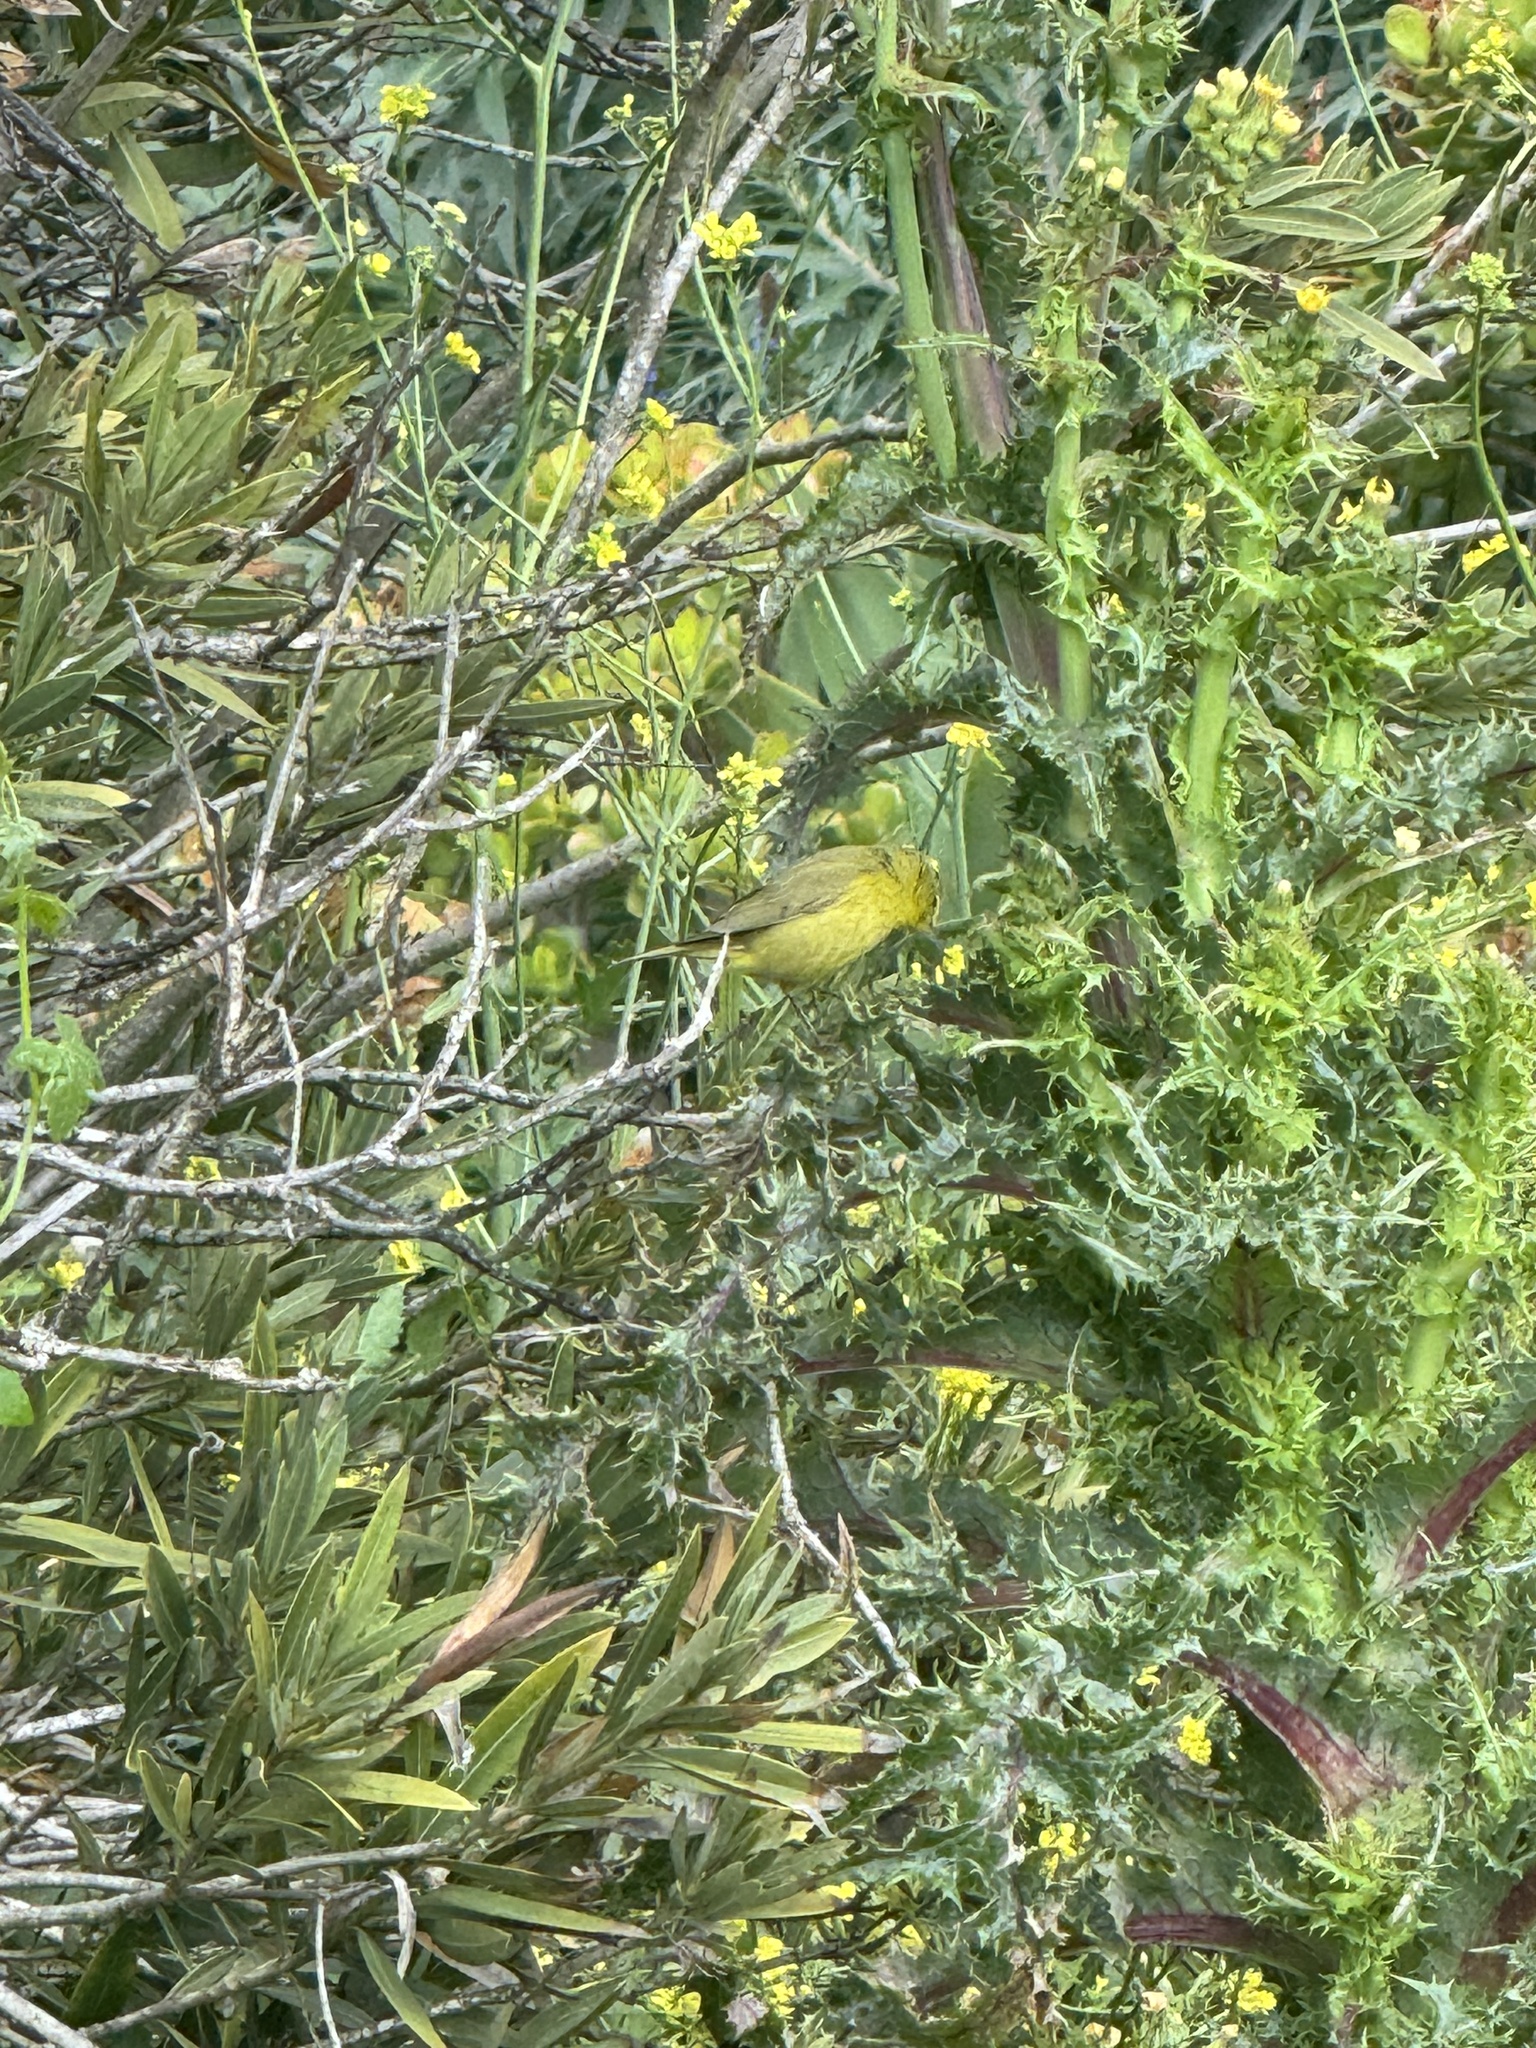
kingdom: Animalia
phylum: Chordata
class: Aves
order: Passeriformes
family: Parulidae
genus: Leiothlypis
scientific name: Leiothlypis celata
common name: Orange-crowned warbler
